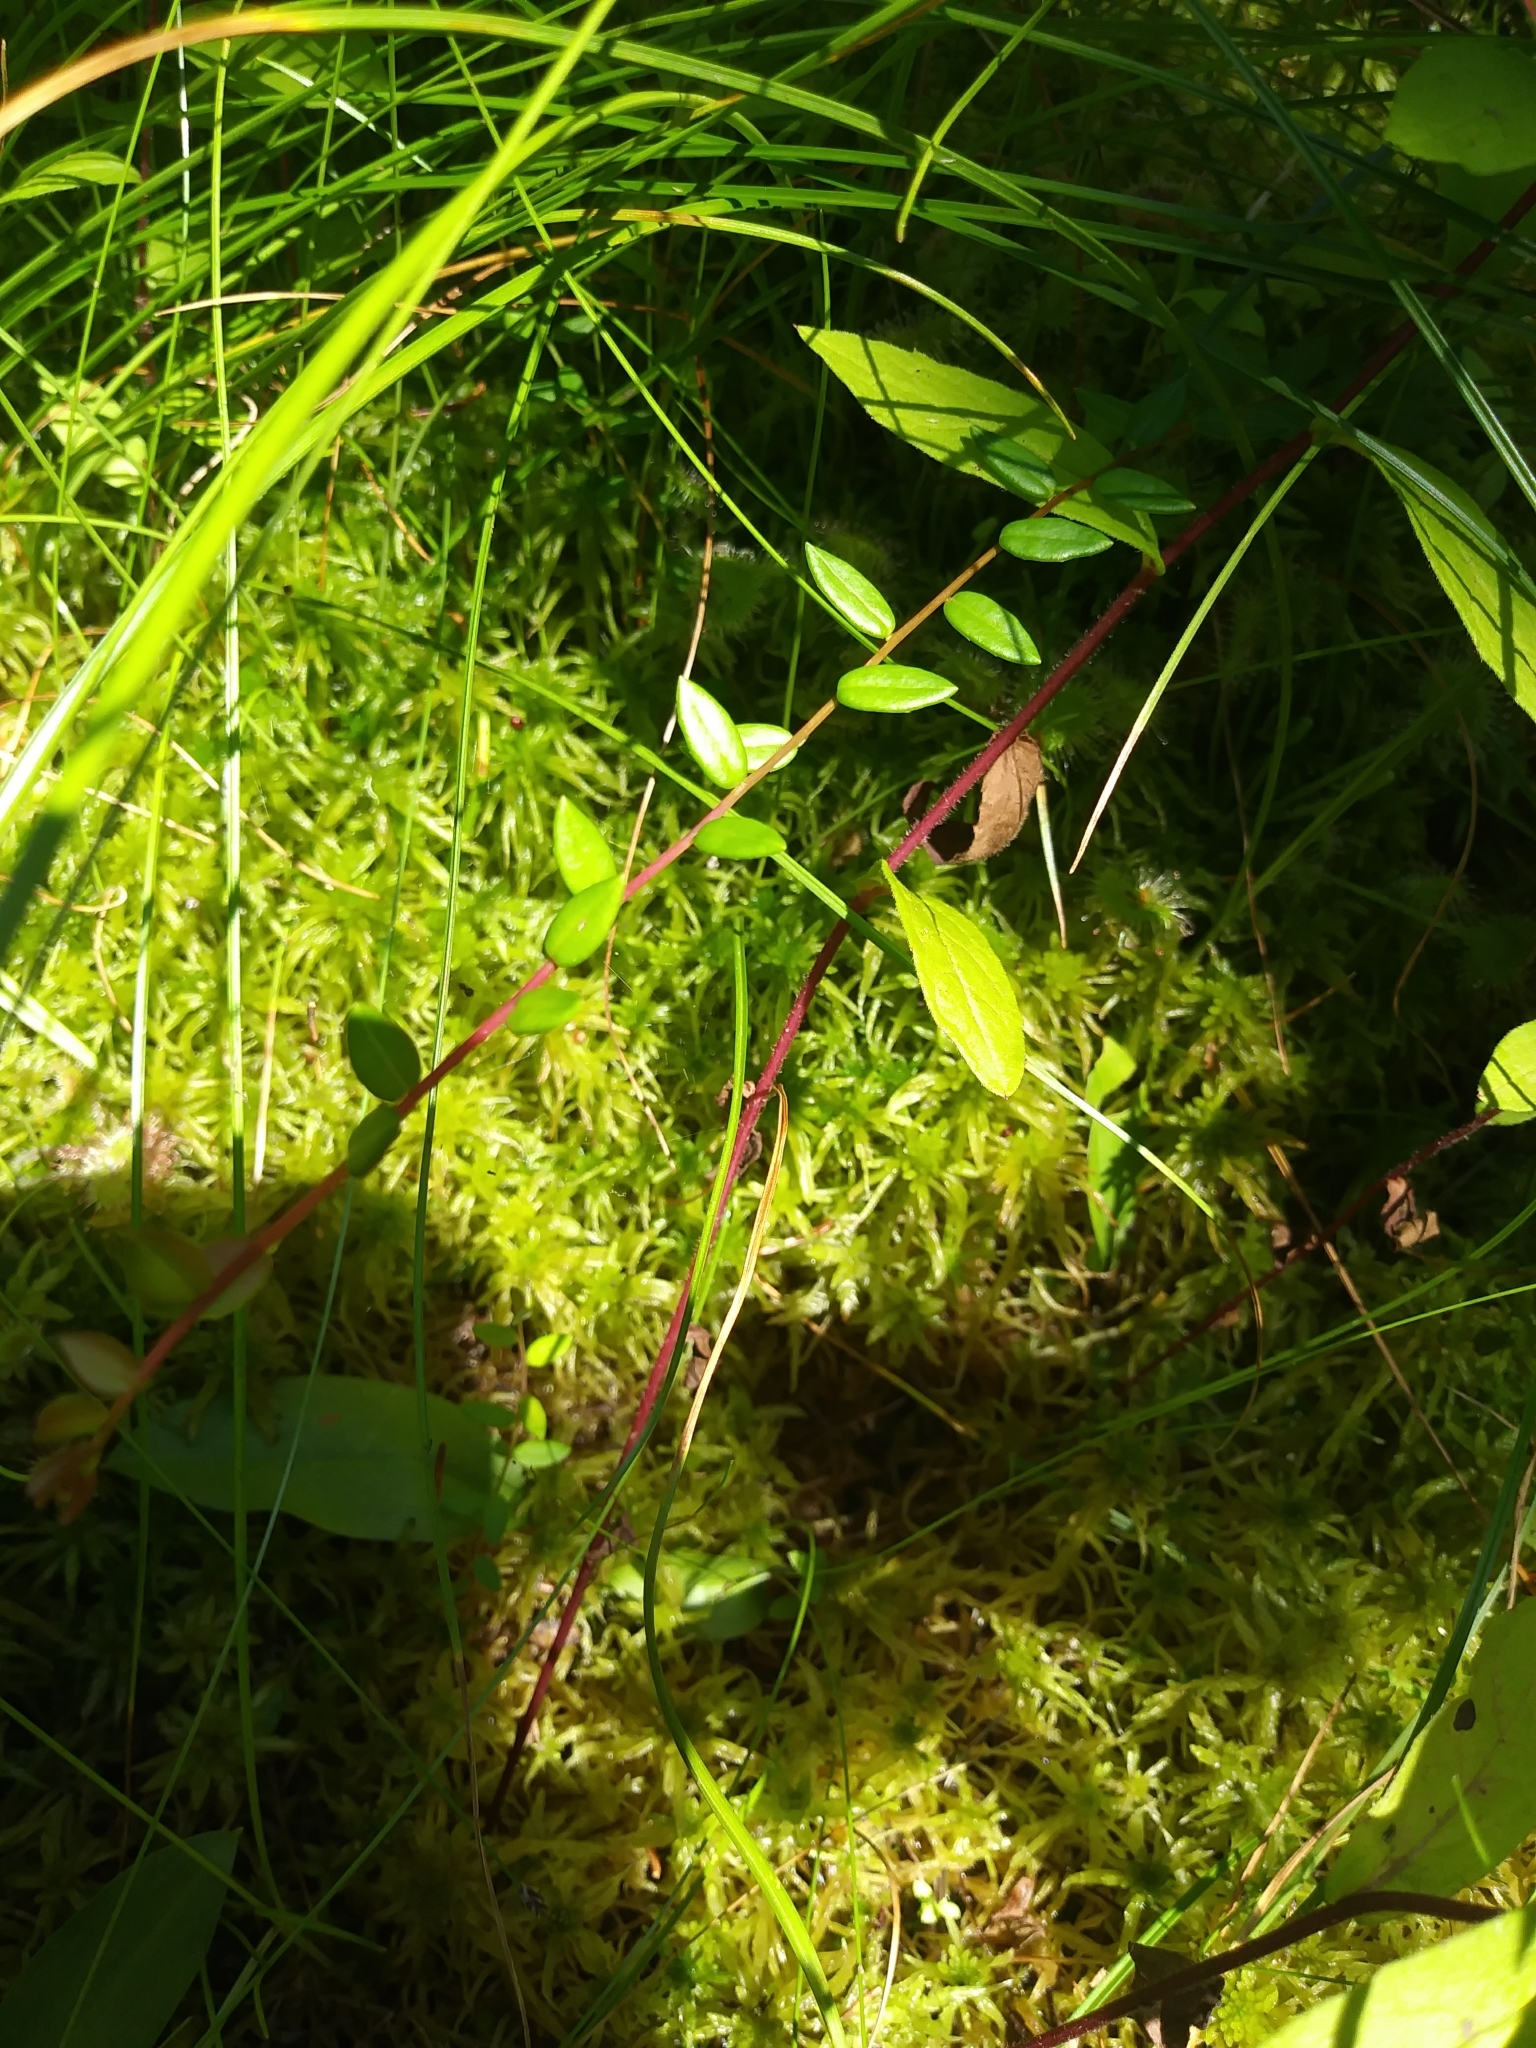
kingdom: Plantae
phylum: Tracheophyta
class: Magnoliopsida
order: Ericales
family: Ericaceae
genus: Vaccinium
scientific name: Vaccinium oxycoccos
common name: Cranberry
